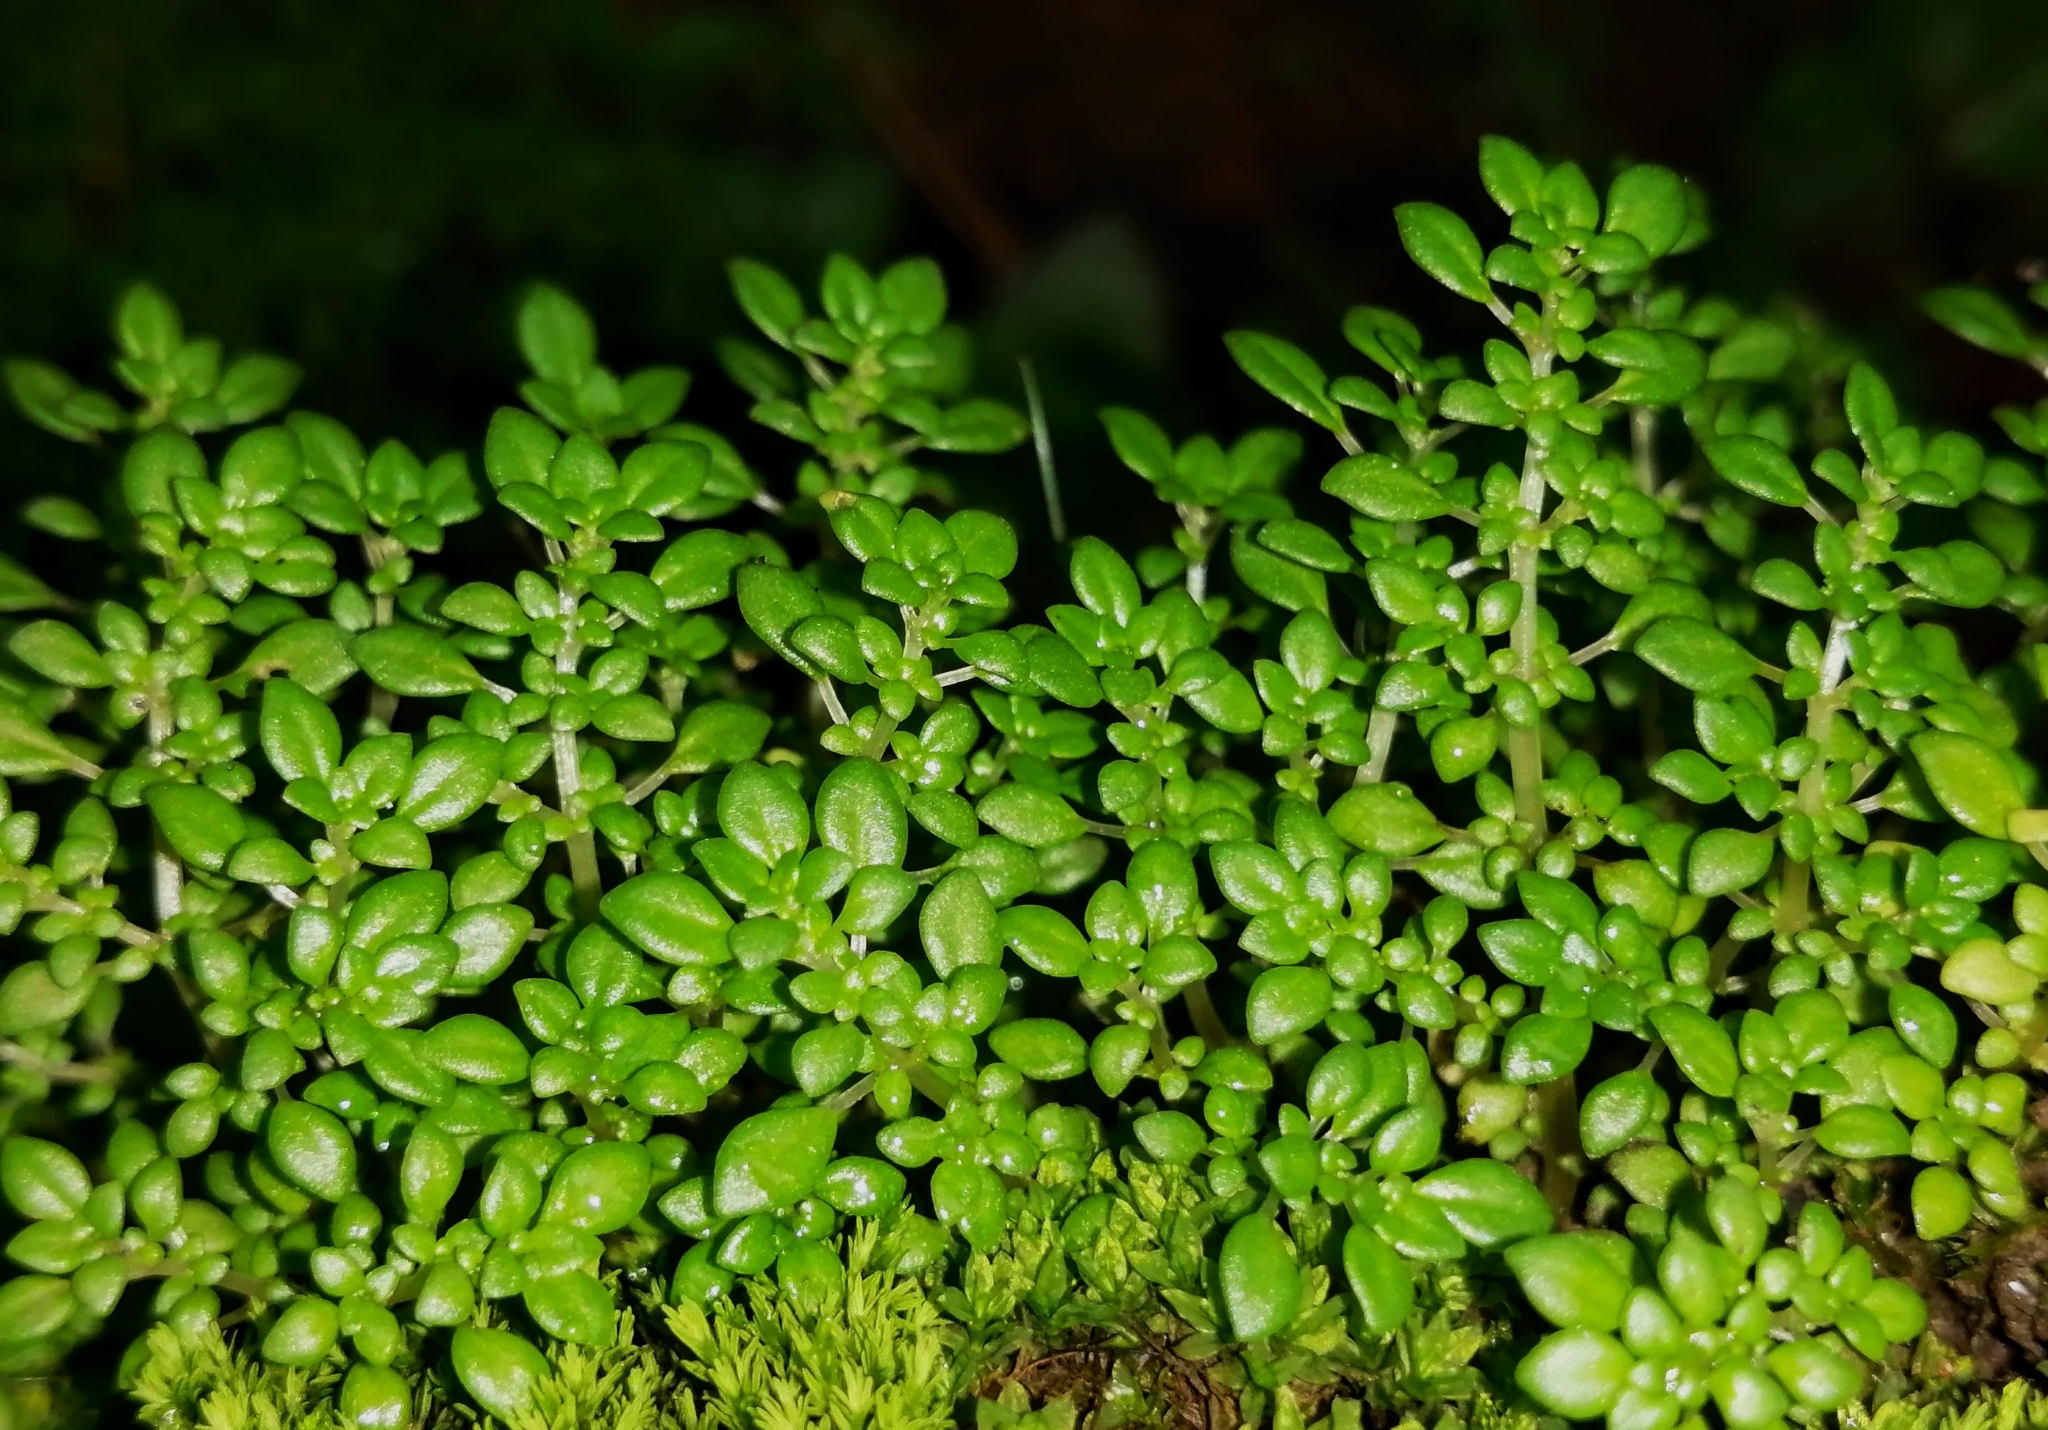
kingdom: Plantae
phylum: Tracheophyta
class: Magnoliopsida
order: Rosales
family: Urticaceae
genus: Pilea
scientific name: Pilea microphylla
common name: Artillery-plant
